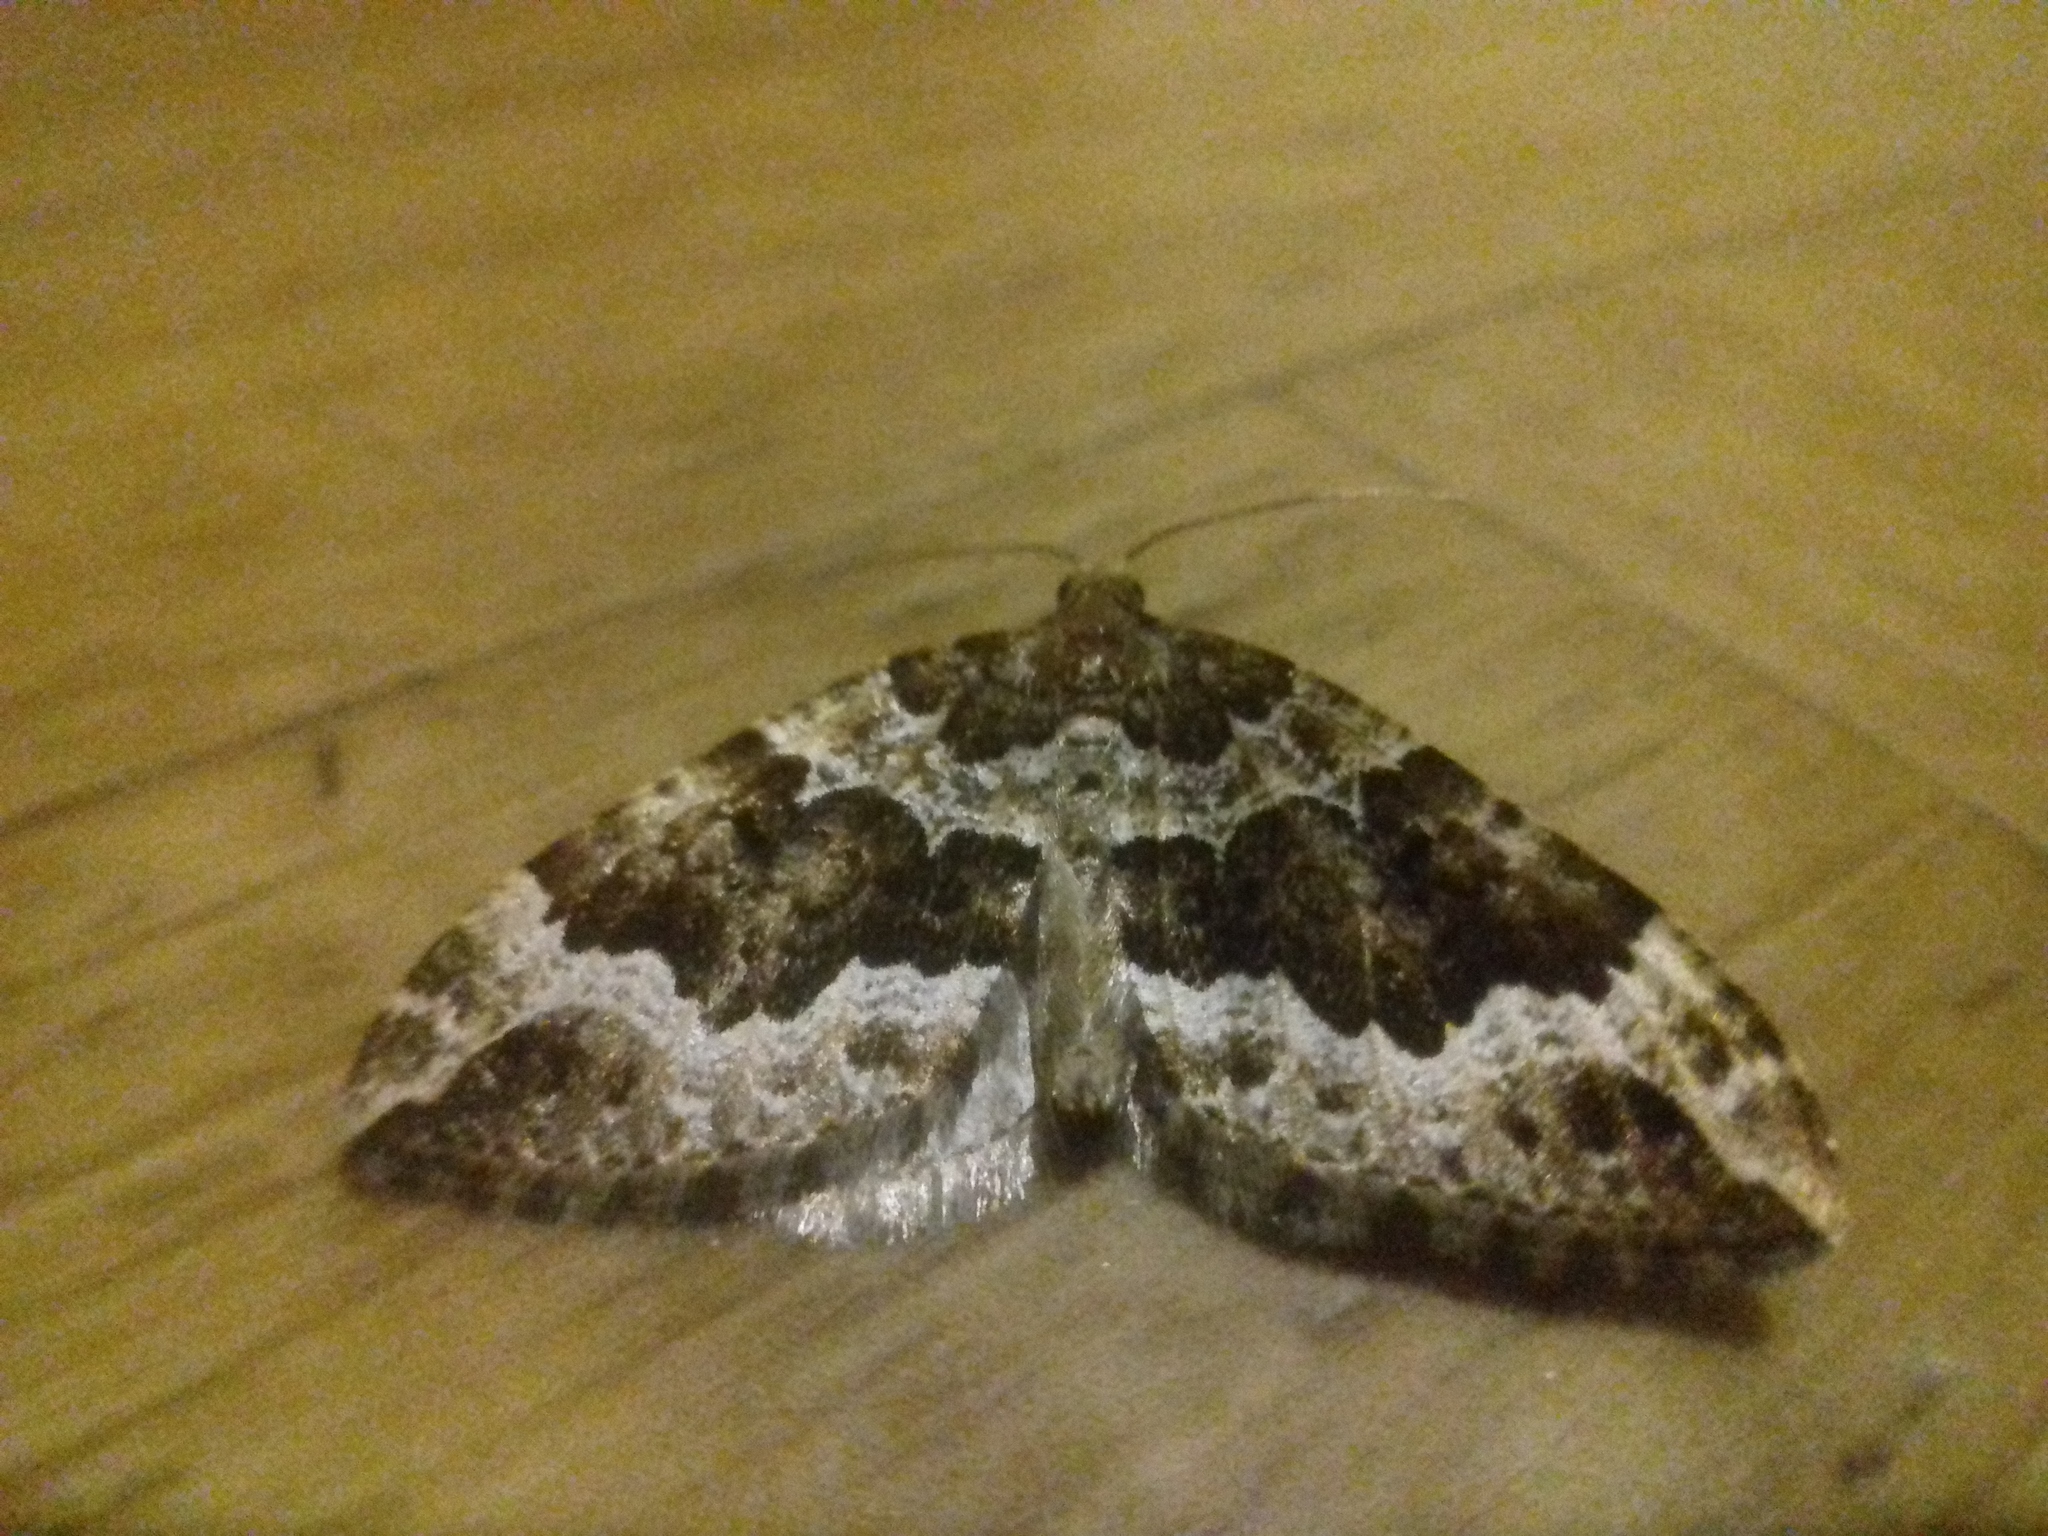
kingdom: Animalia
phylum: Arthropoda
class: Insecta
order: Lepidoptera
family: Geometridae
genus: Lampropteryx
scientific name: Lampropteryx suffumata
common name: Water carpet
